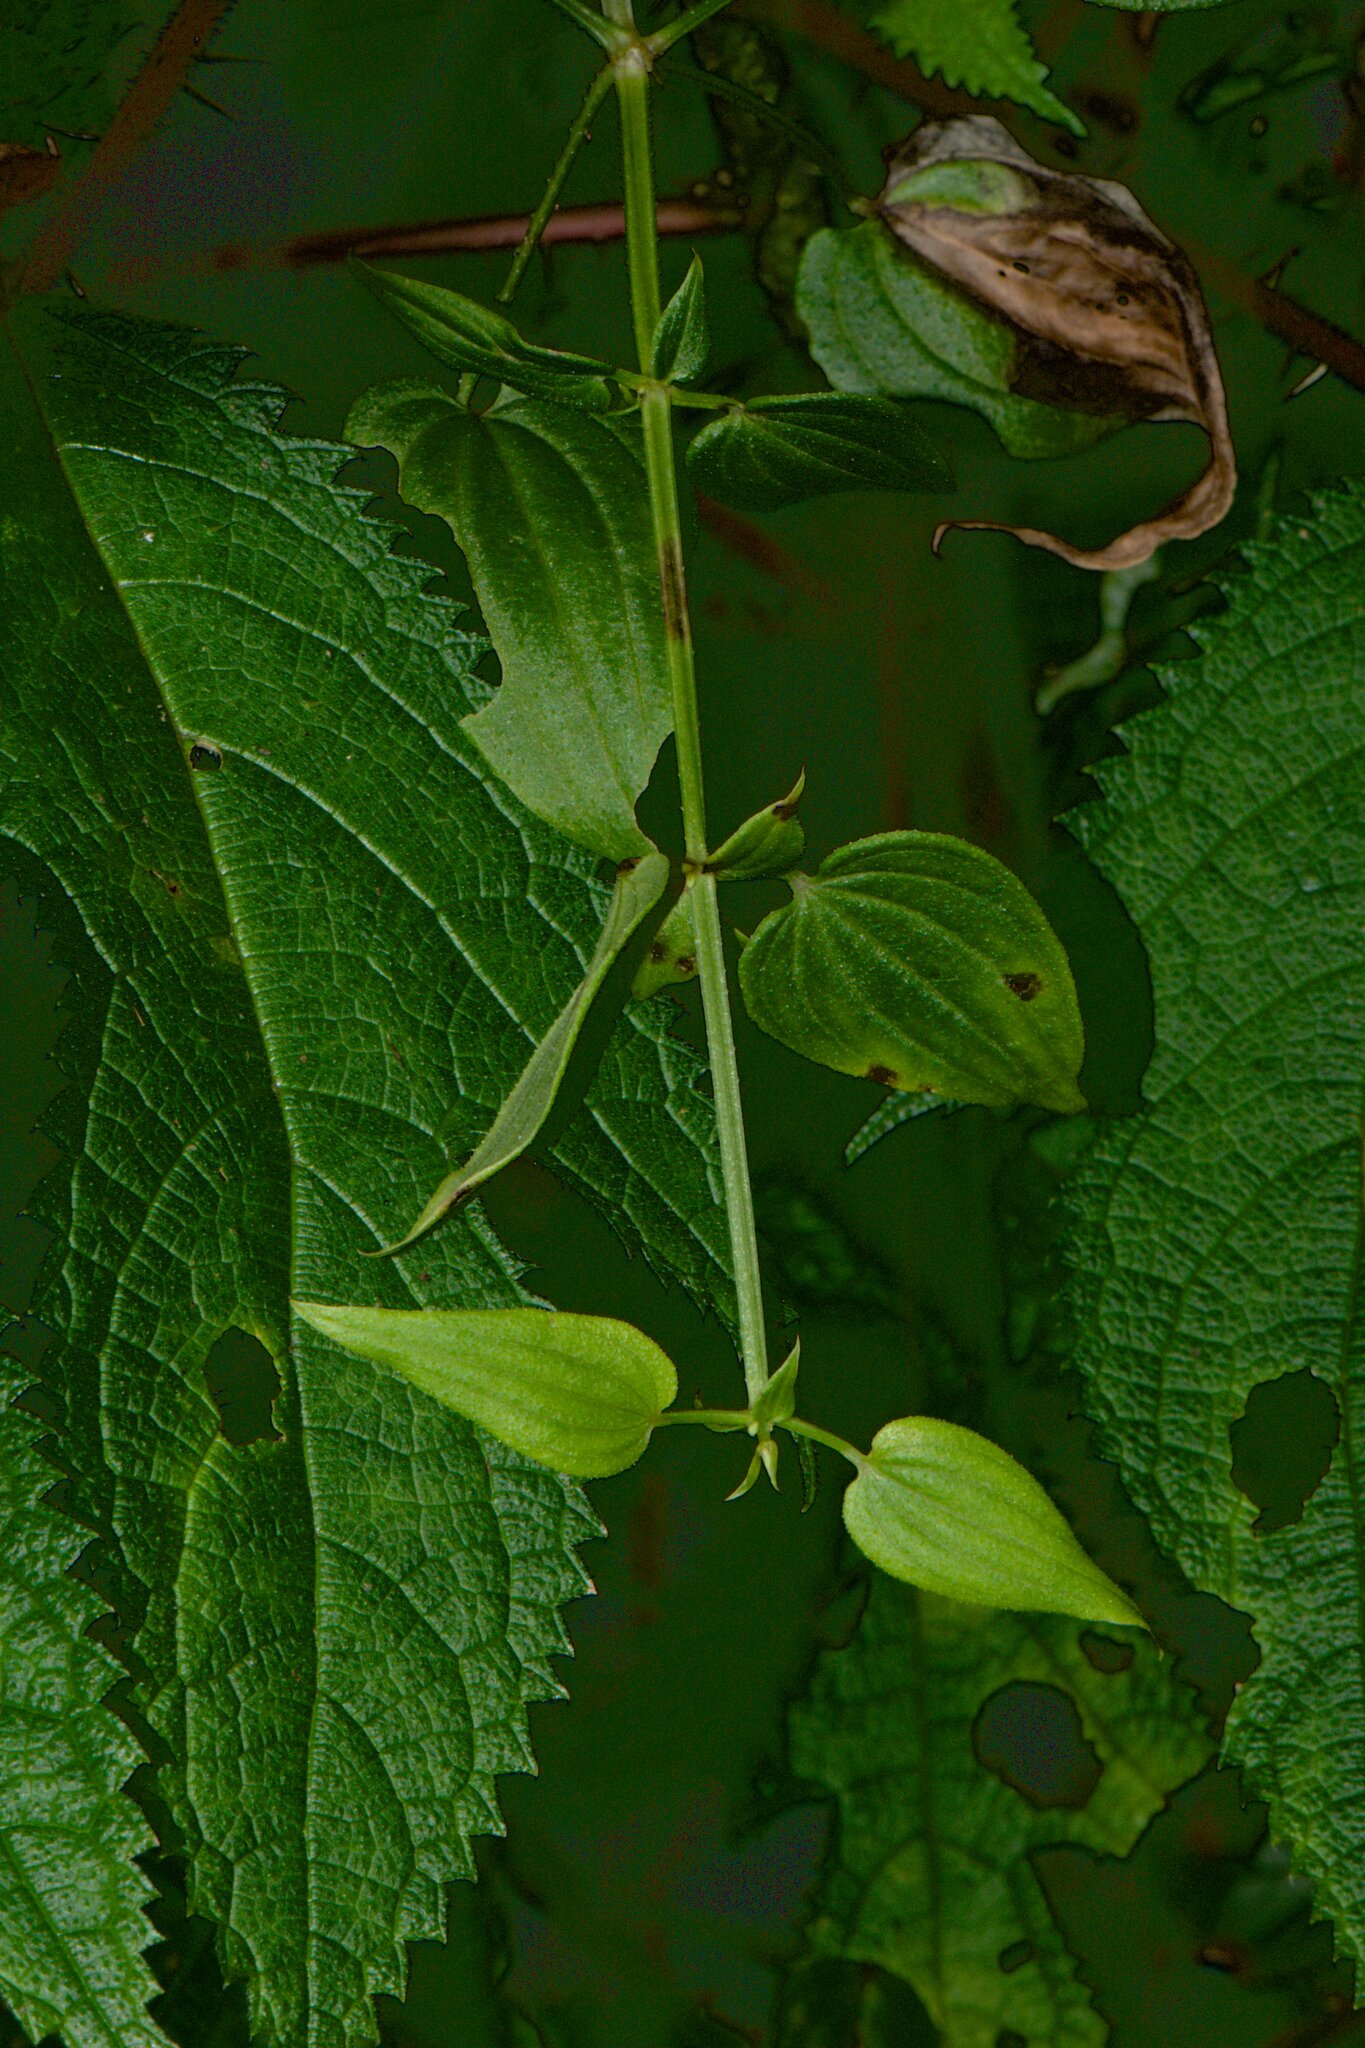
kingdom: Plantae
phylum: Tracheophyta
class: Magnoliopsida
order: Gentianales
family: Rubiaceae
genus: Rubia
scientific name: Rubia cordifolia
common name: Indian madder
